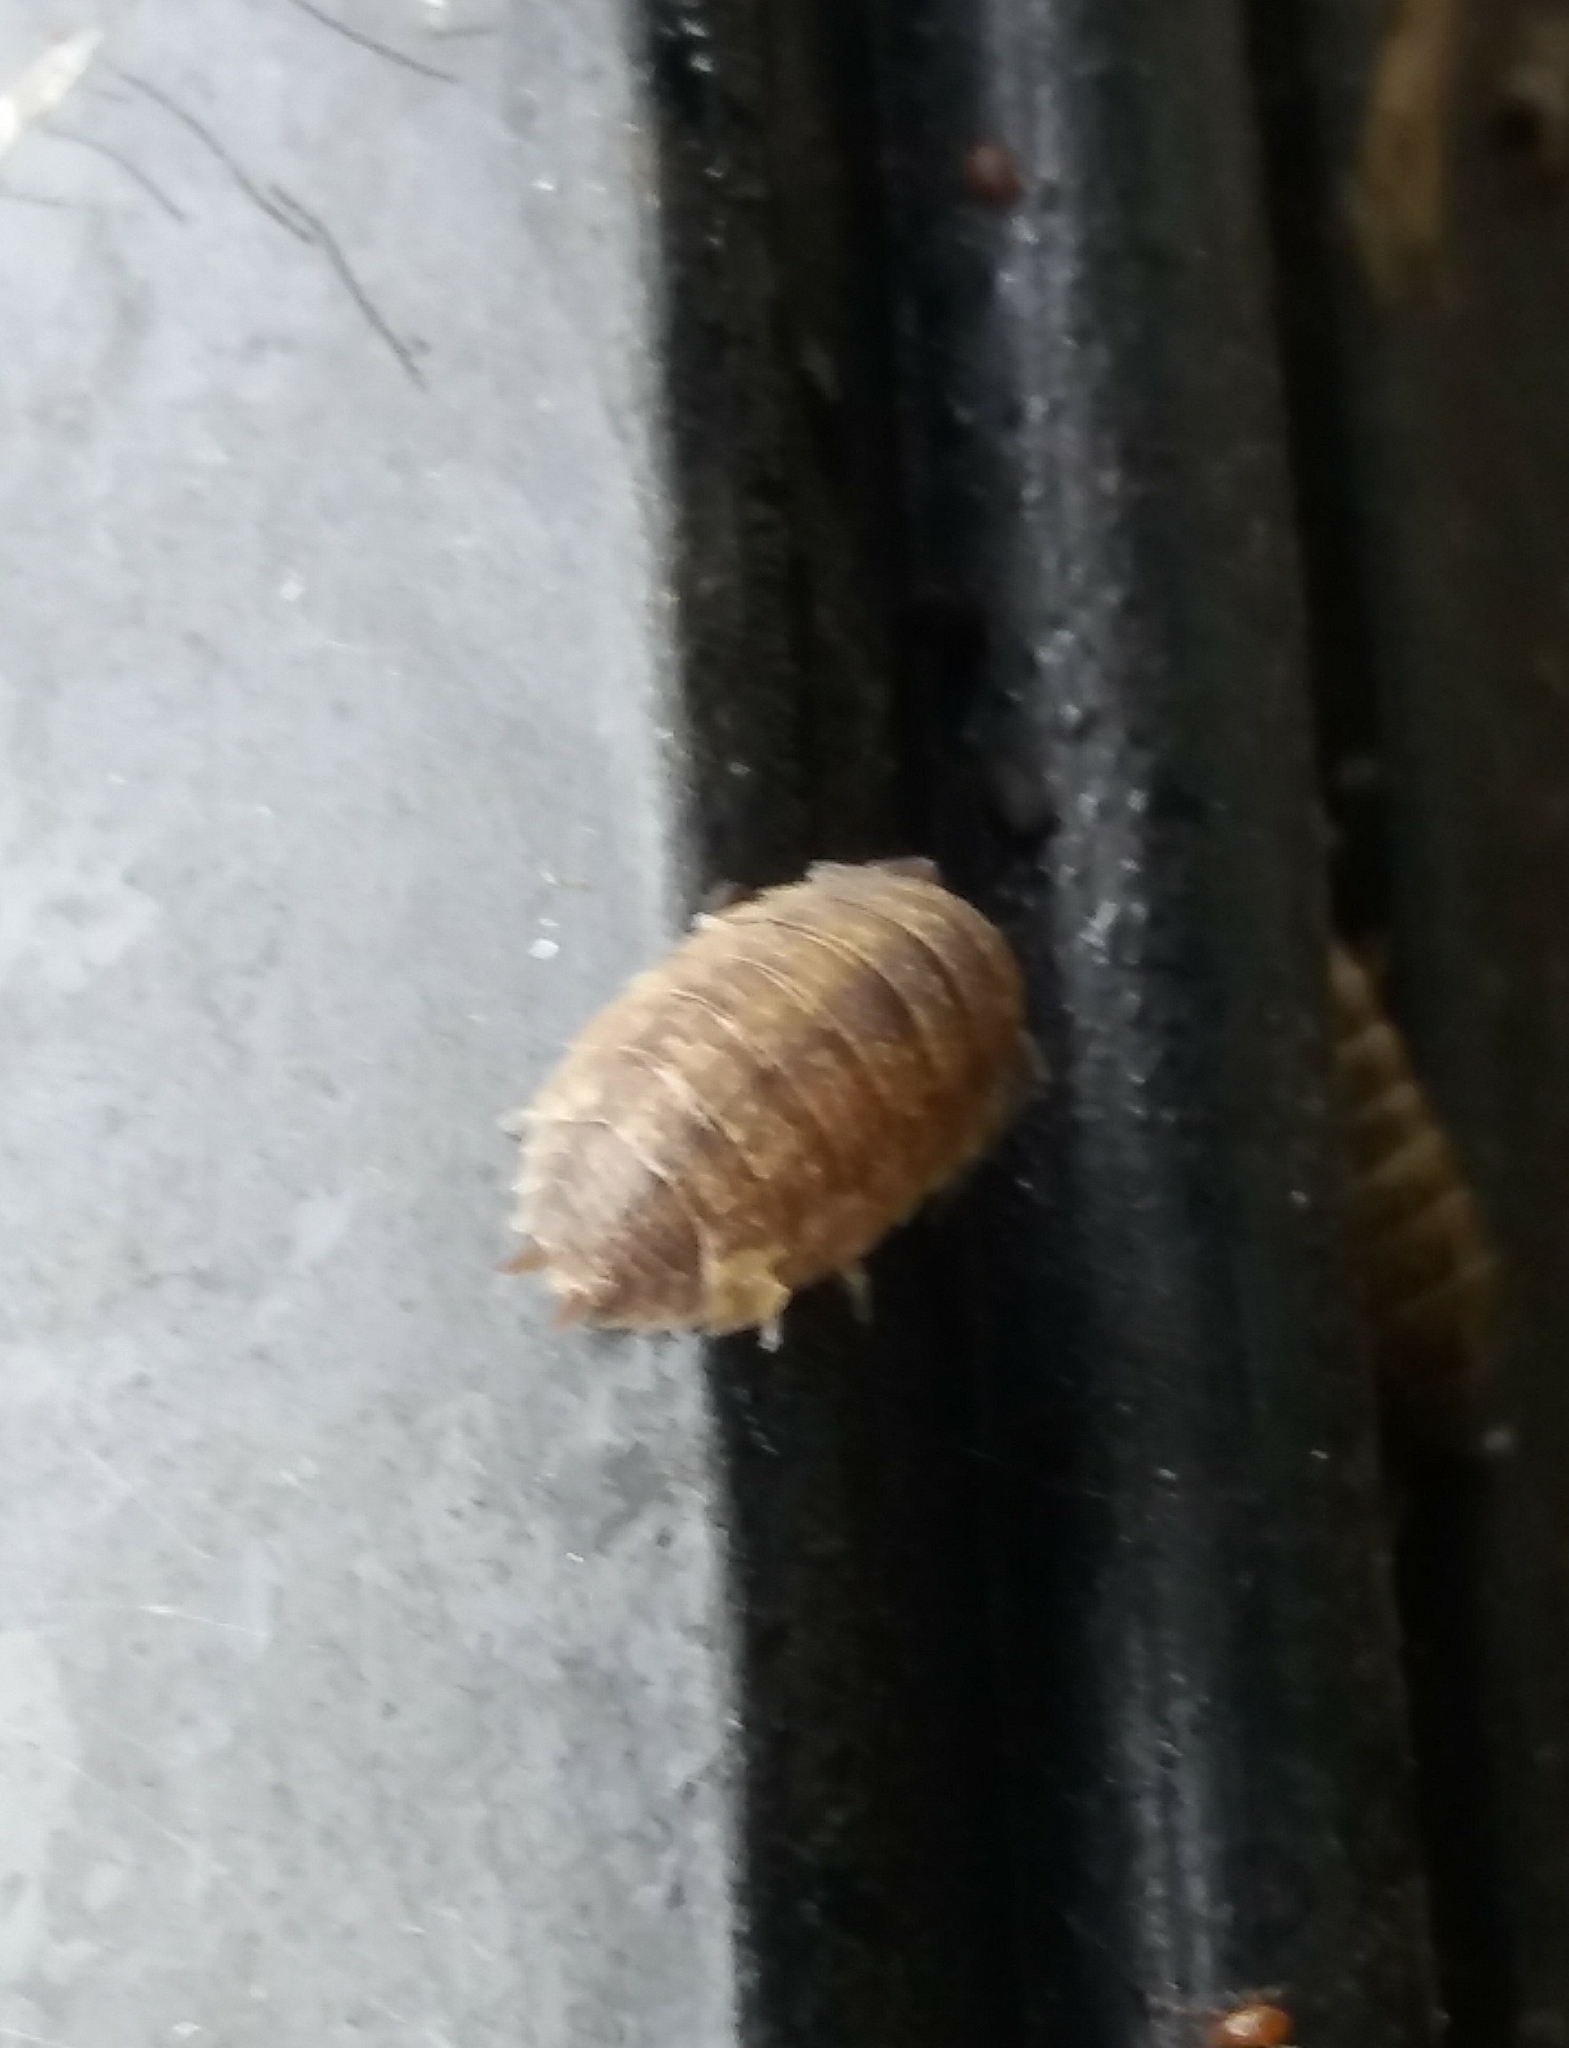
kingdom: Animalia
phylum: Arthropoda
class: Malacostraca
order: Isopoda
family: Porcellionidae
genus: Porcellio
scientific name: Porcellio scaber
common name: Common rough woodlouse
